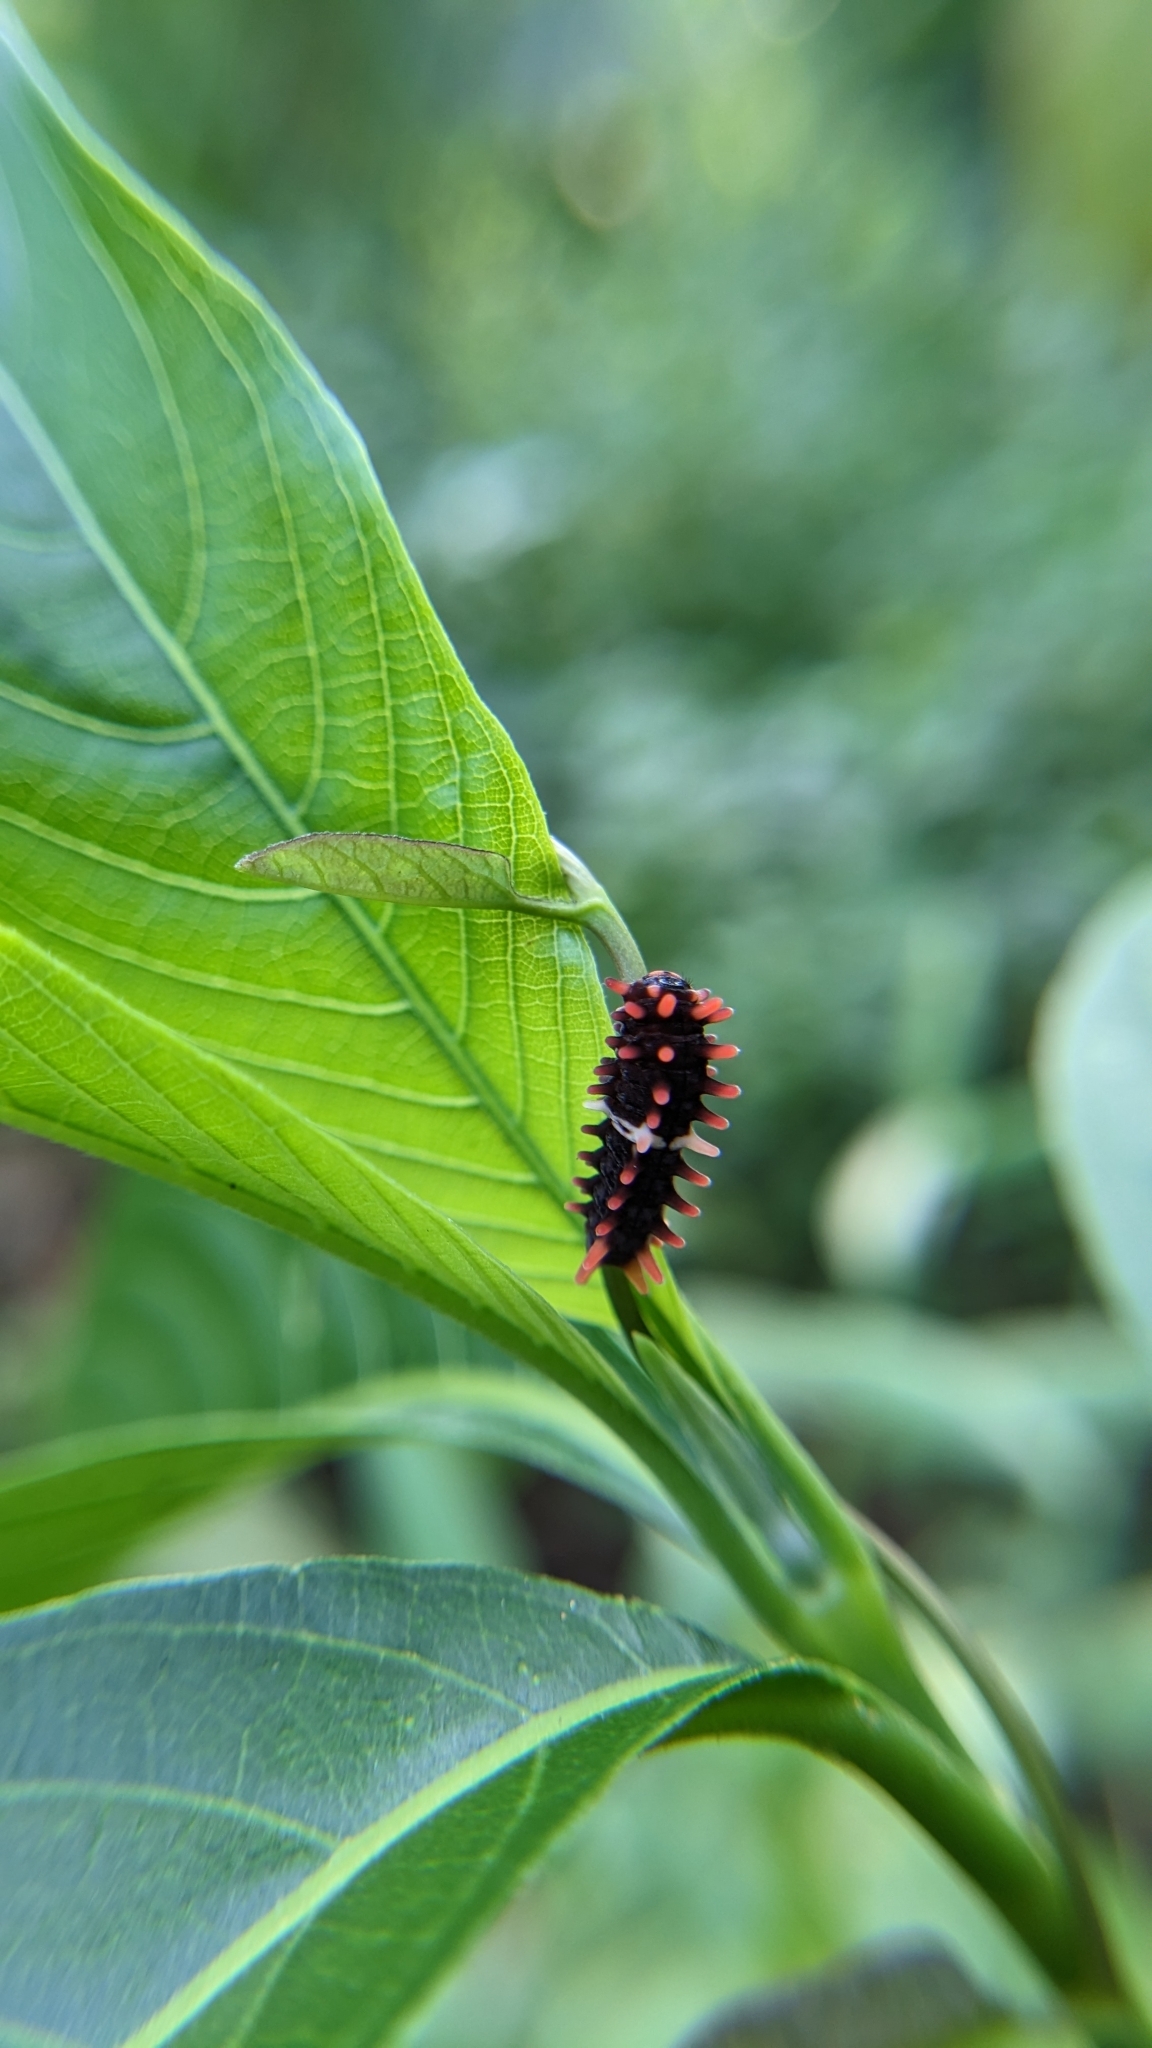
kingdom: Animalia
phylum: Arthropoda
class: Insecta
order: Lepidoptera
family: Papilionidae
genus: Pachliopta
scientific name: Pachliopta aristolochiae
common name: Common rose
